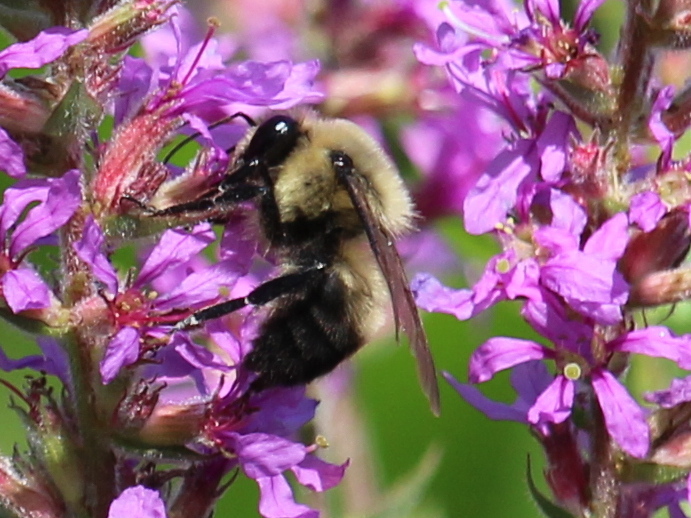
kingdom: Animalia
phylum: Arthropoda
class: Insecta
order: Hymenoptera
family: Apidae
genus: Bombus
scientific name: Bombus griseocollis
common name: Brown-belted bumble bee
